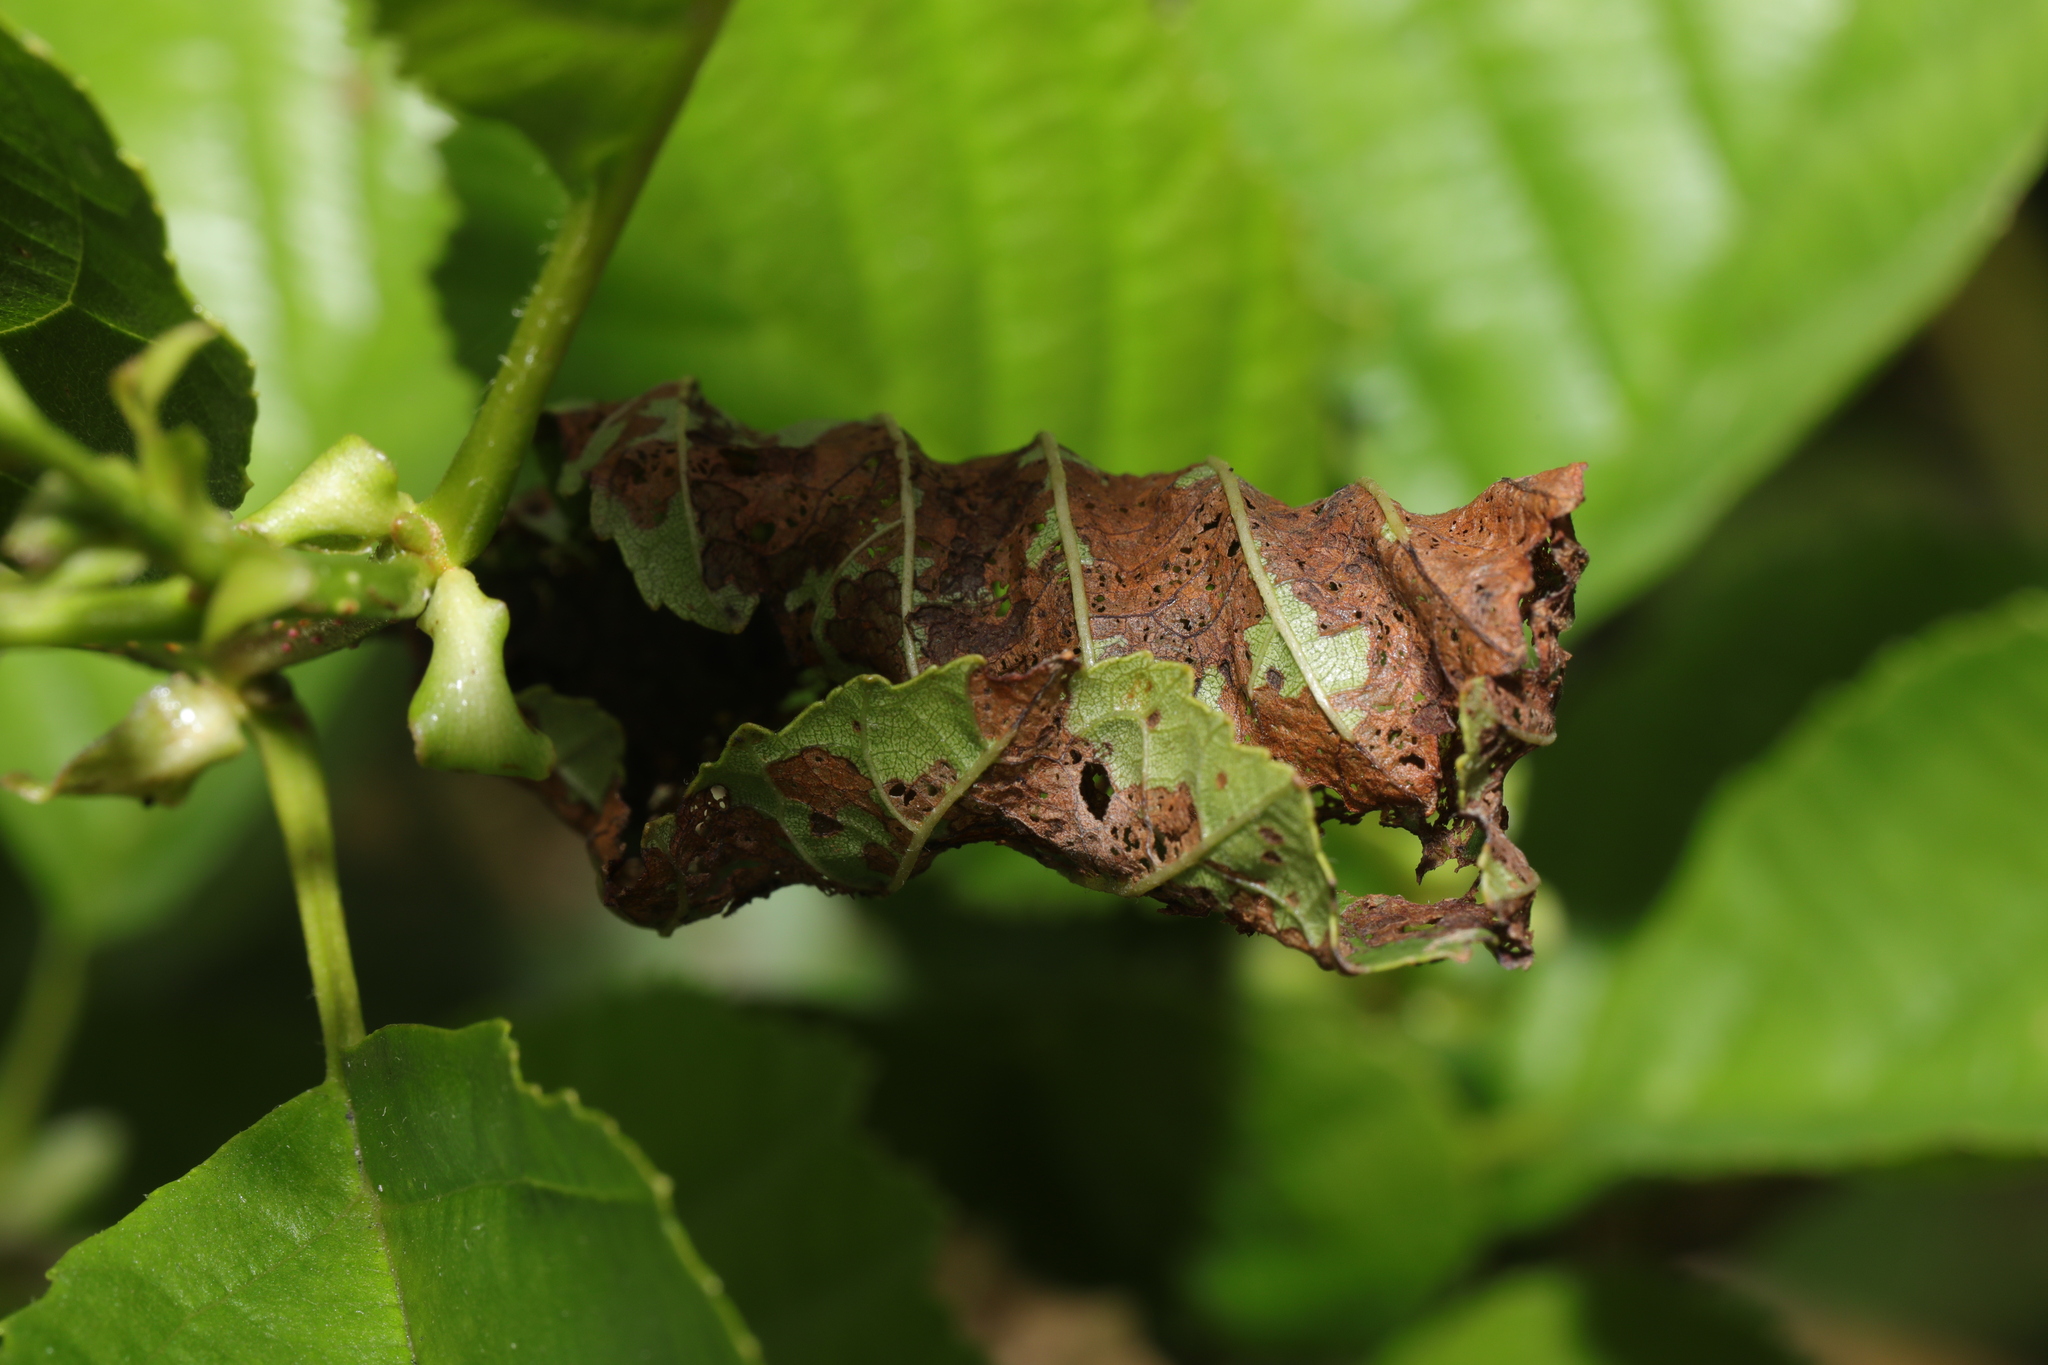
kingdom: Fungi
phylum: Ascomycota
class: Taphrinomycetes
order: Taphrinales
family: Taphrinaceae
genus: Taphrina
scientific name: Taphrina tosquinetii
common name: Alder wrinkle
